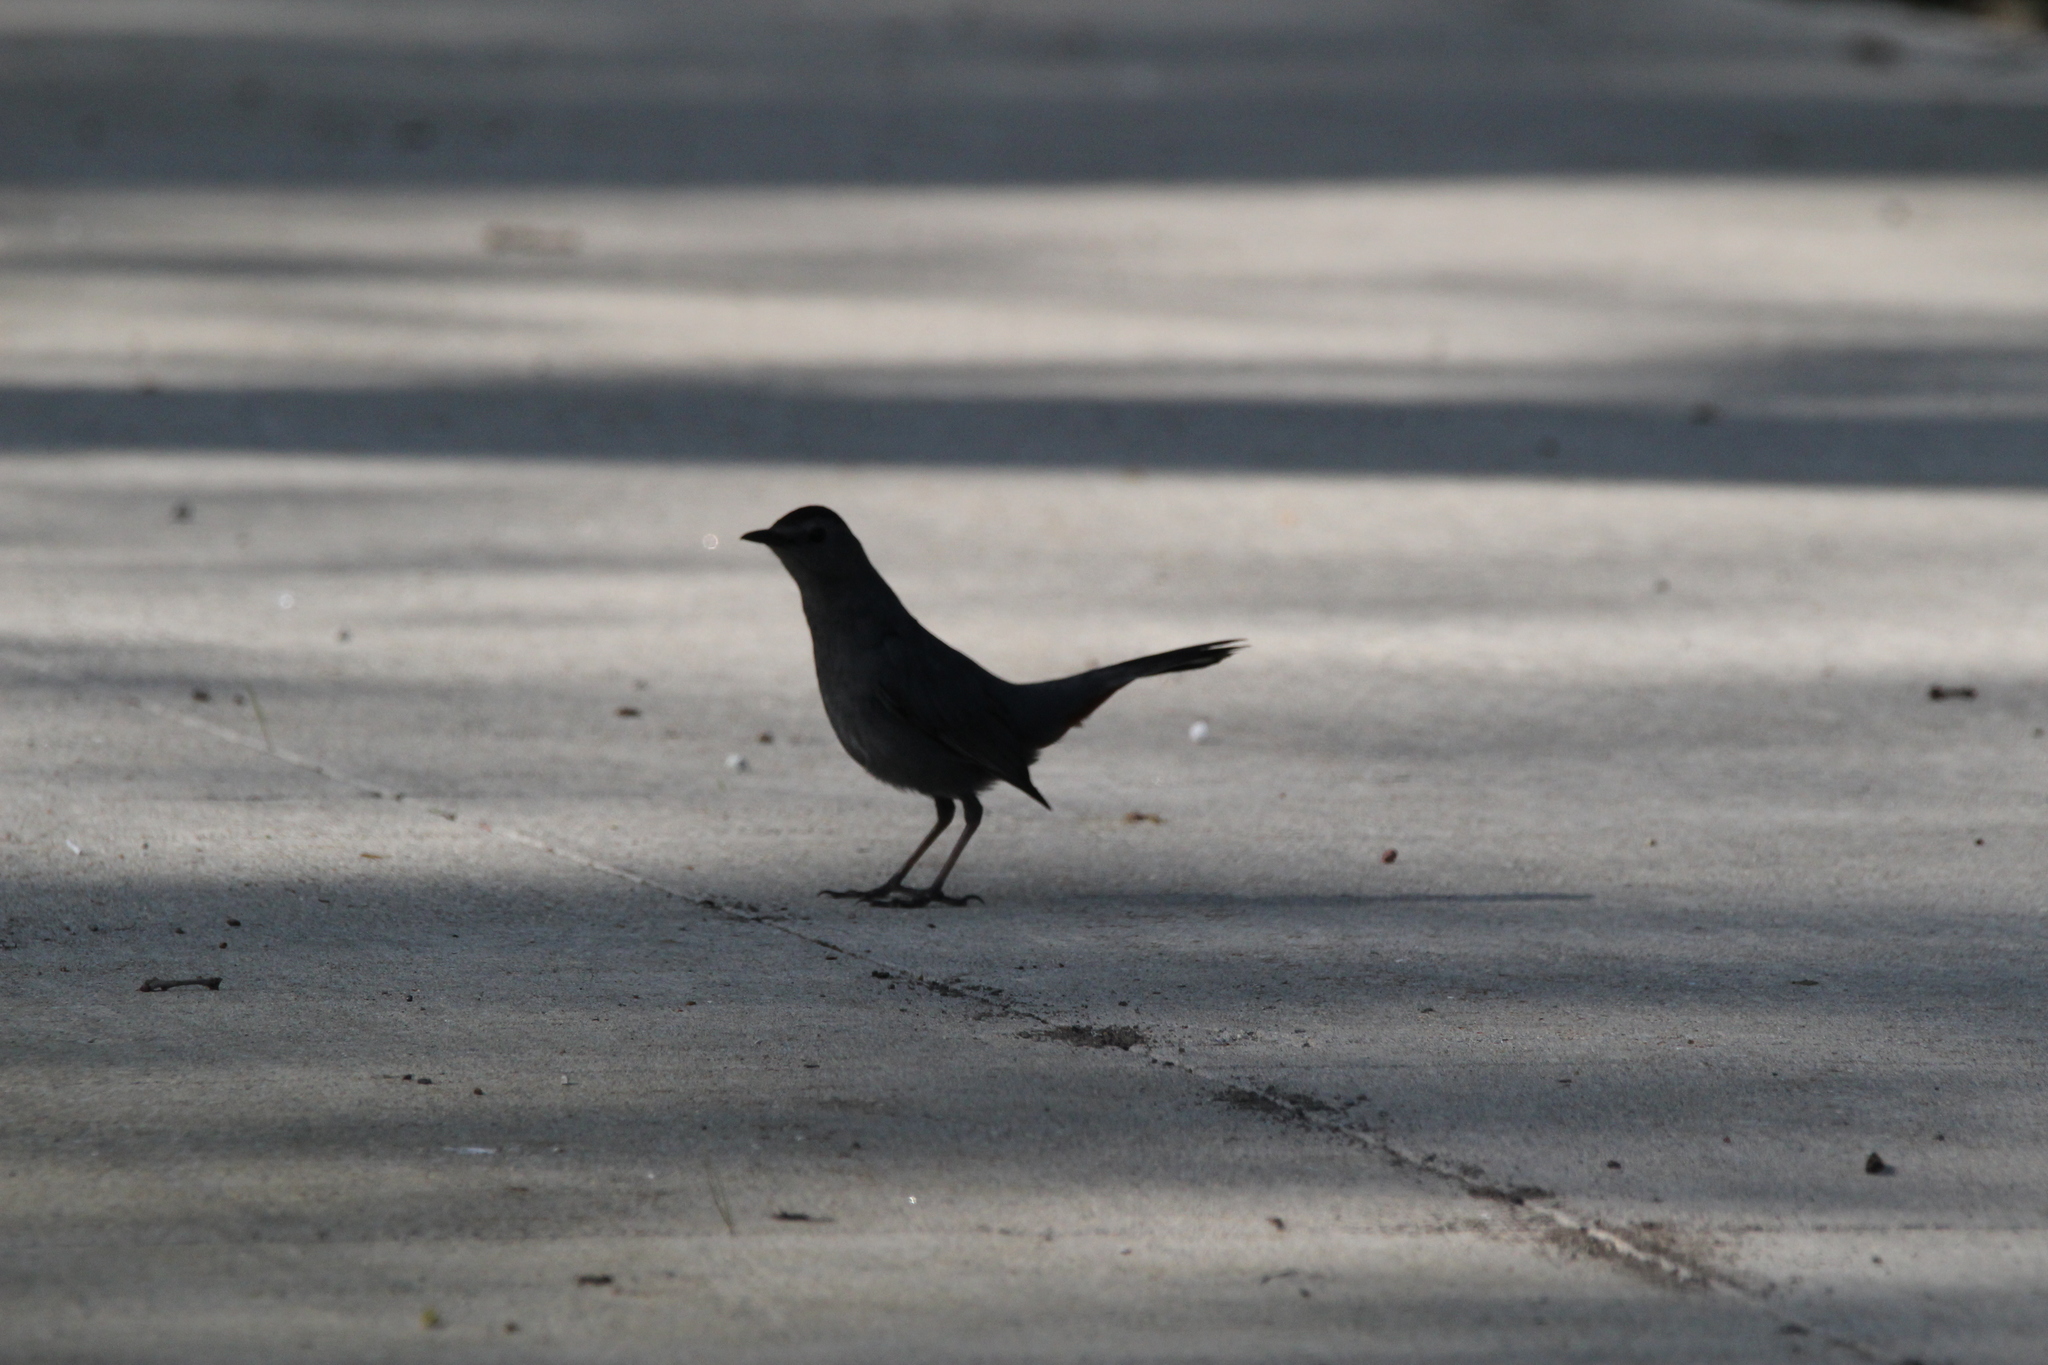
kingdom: Animalia
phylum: Chordata
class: Aves
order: Passeriformes
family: Mimidae
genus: Dumetella
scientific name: Dumetella carolinensis
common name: Gray catbird
